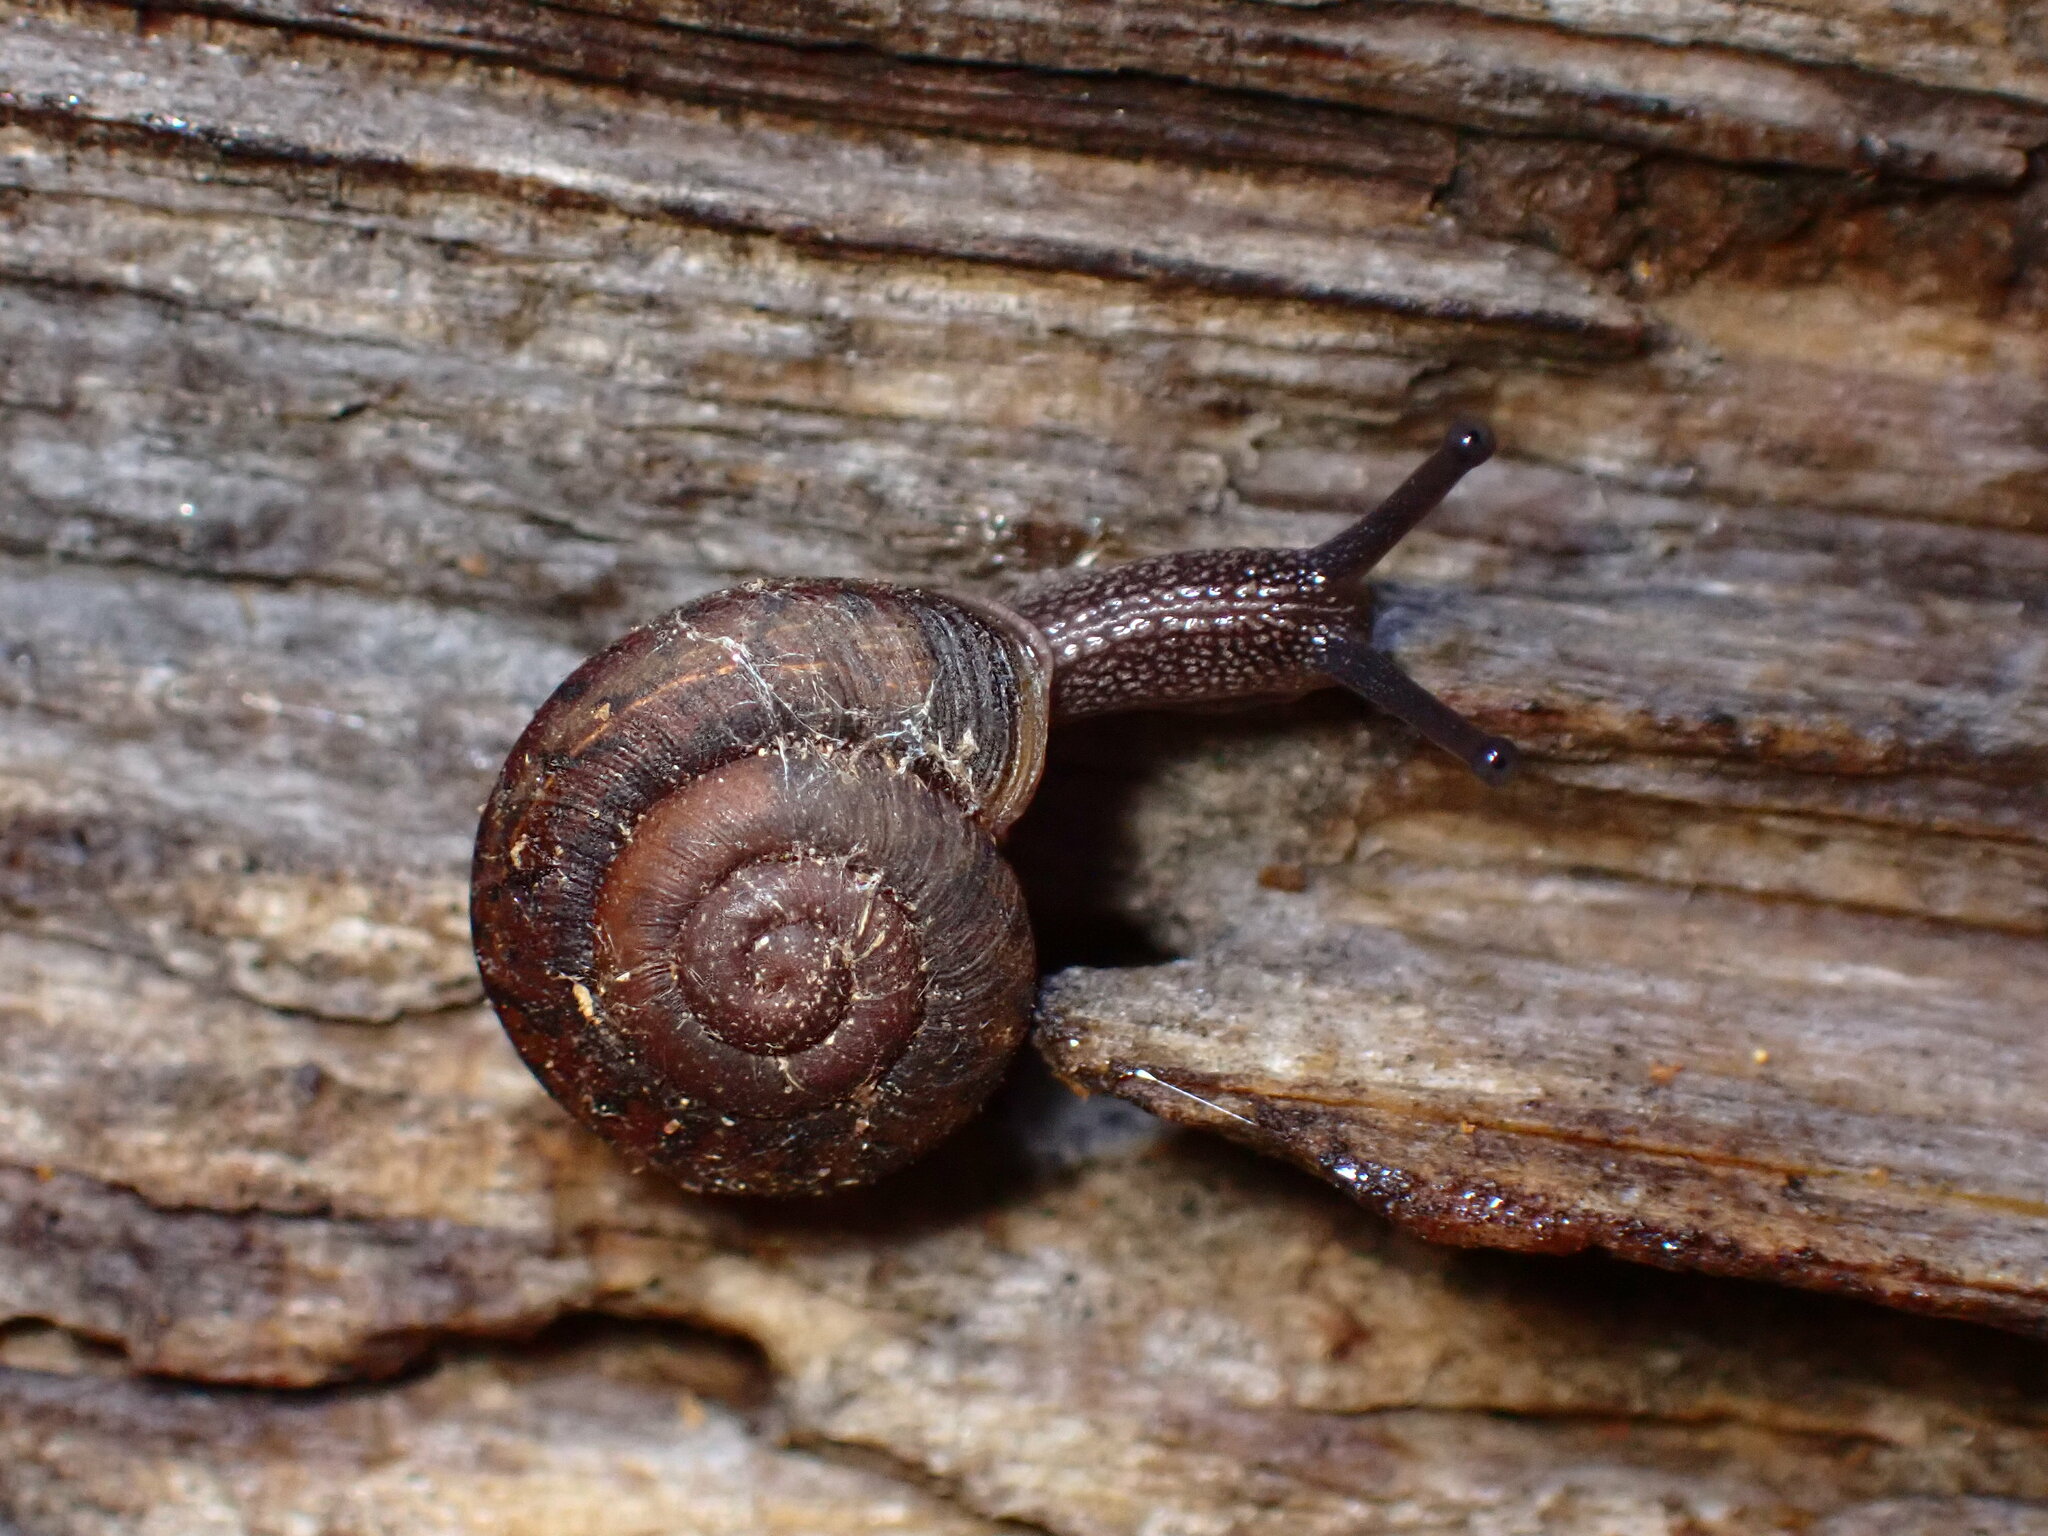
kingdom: Animalia
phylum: Mollusca
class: Gastropoda
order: Stylommatophora
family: Xanthonychidae
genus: Monadenia
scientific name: Monadenia mormonum
